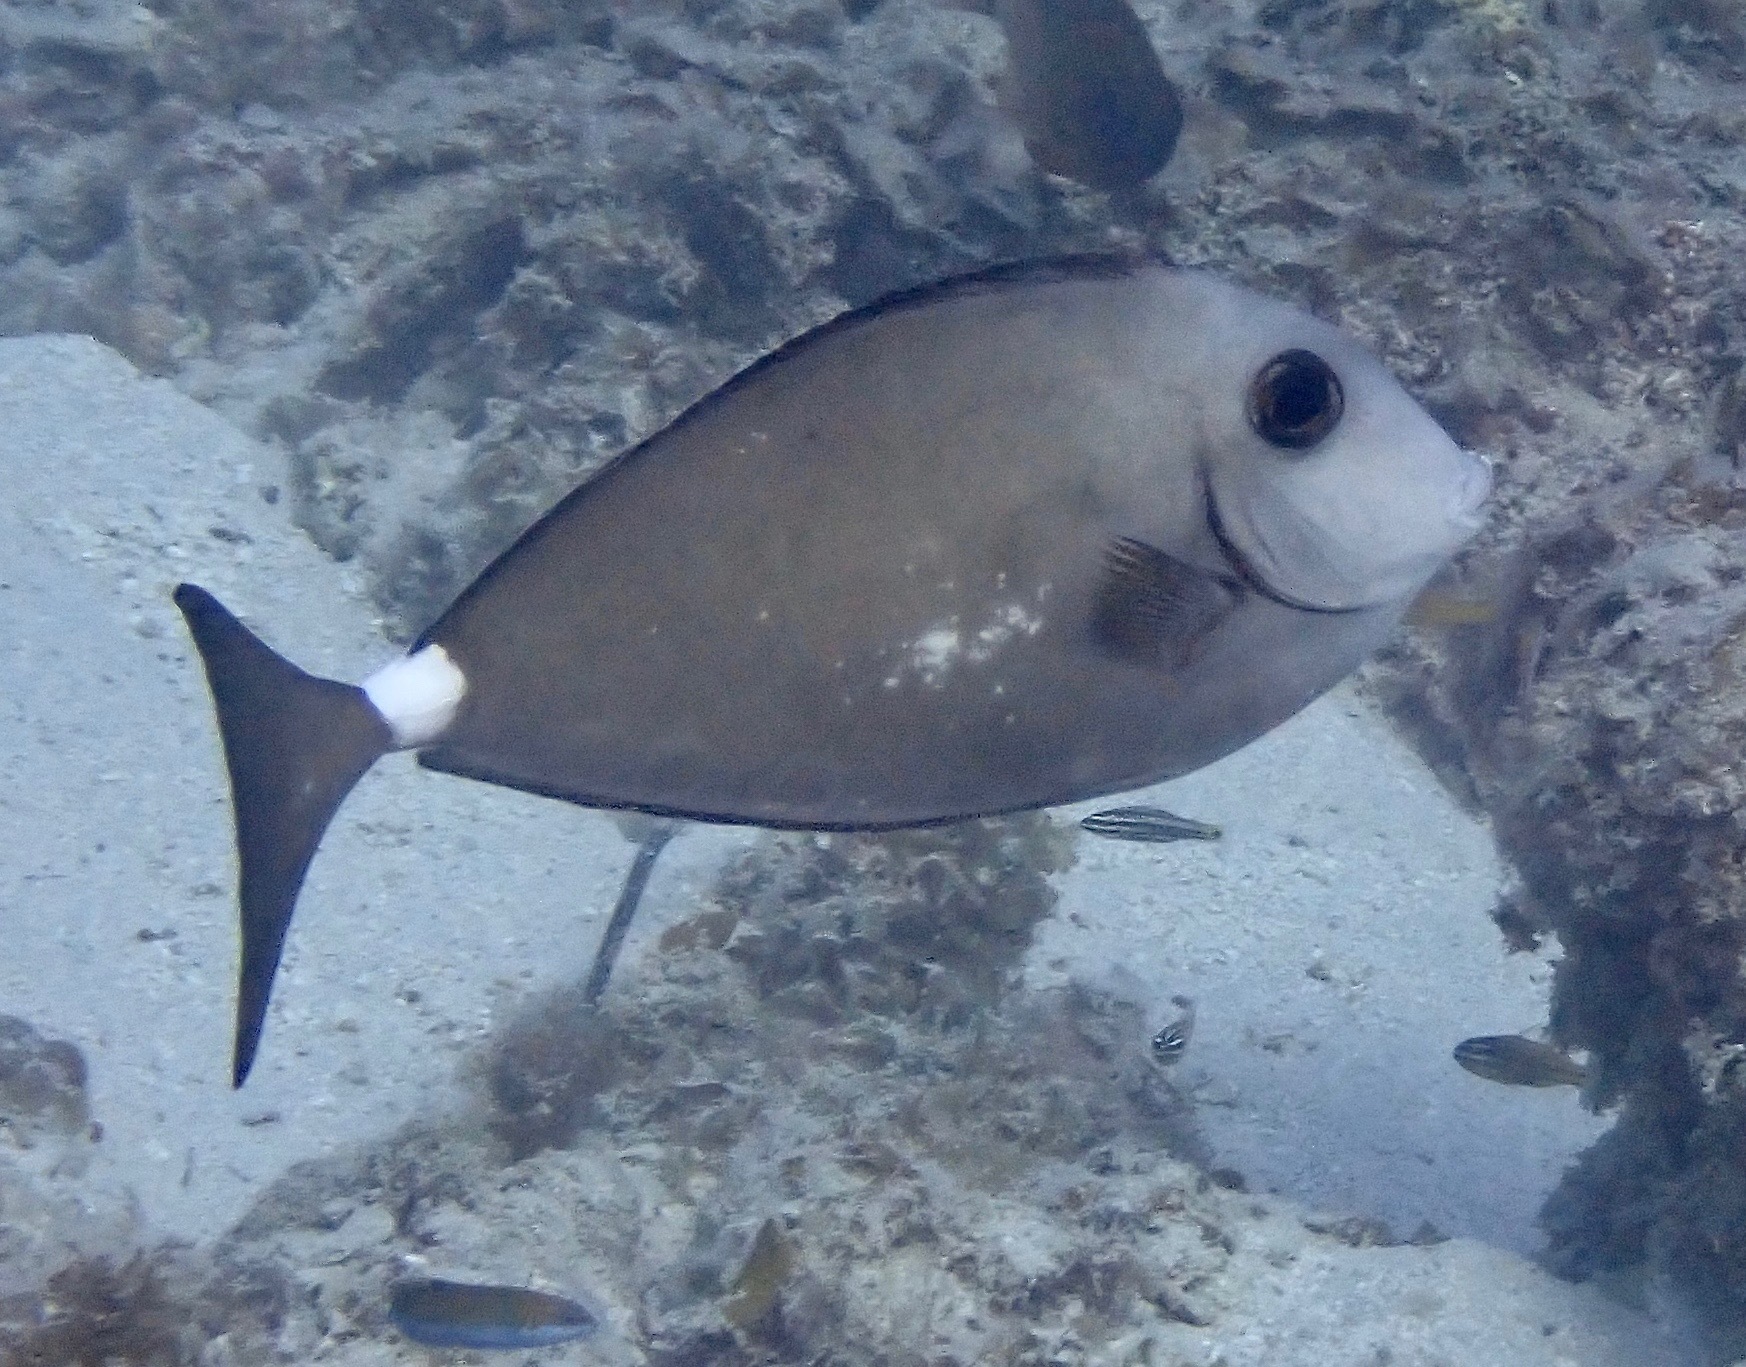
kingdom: Animalia
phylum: Chordata
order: Perciformes
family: Acanthuridae
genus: Naso
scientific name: Naso fageni
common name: Horseface unicornfish
